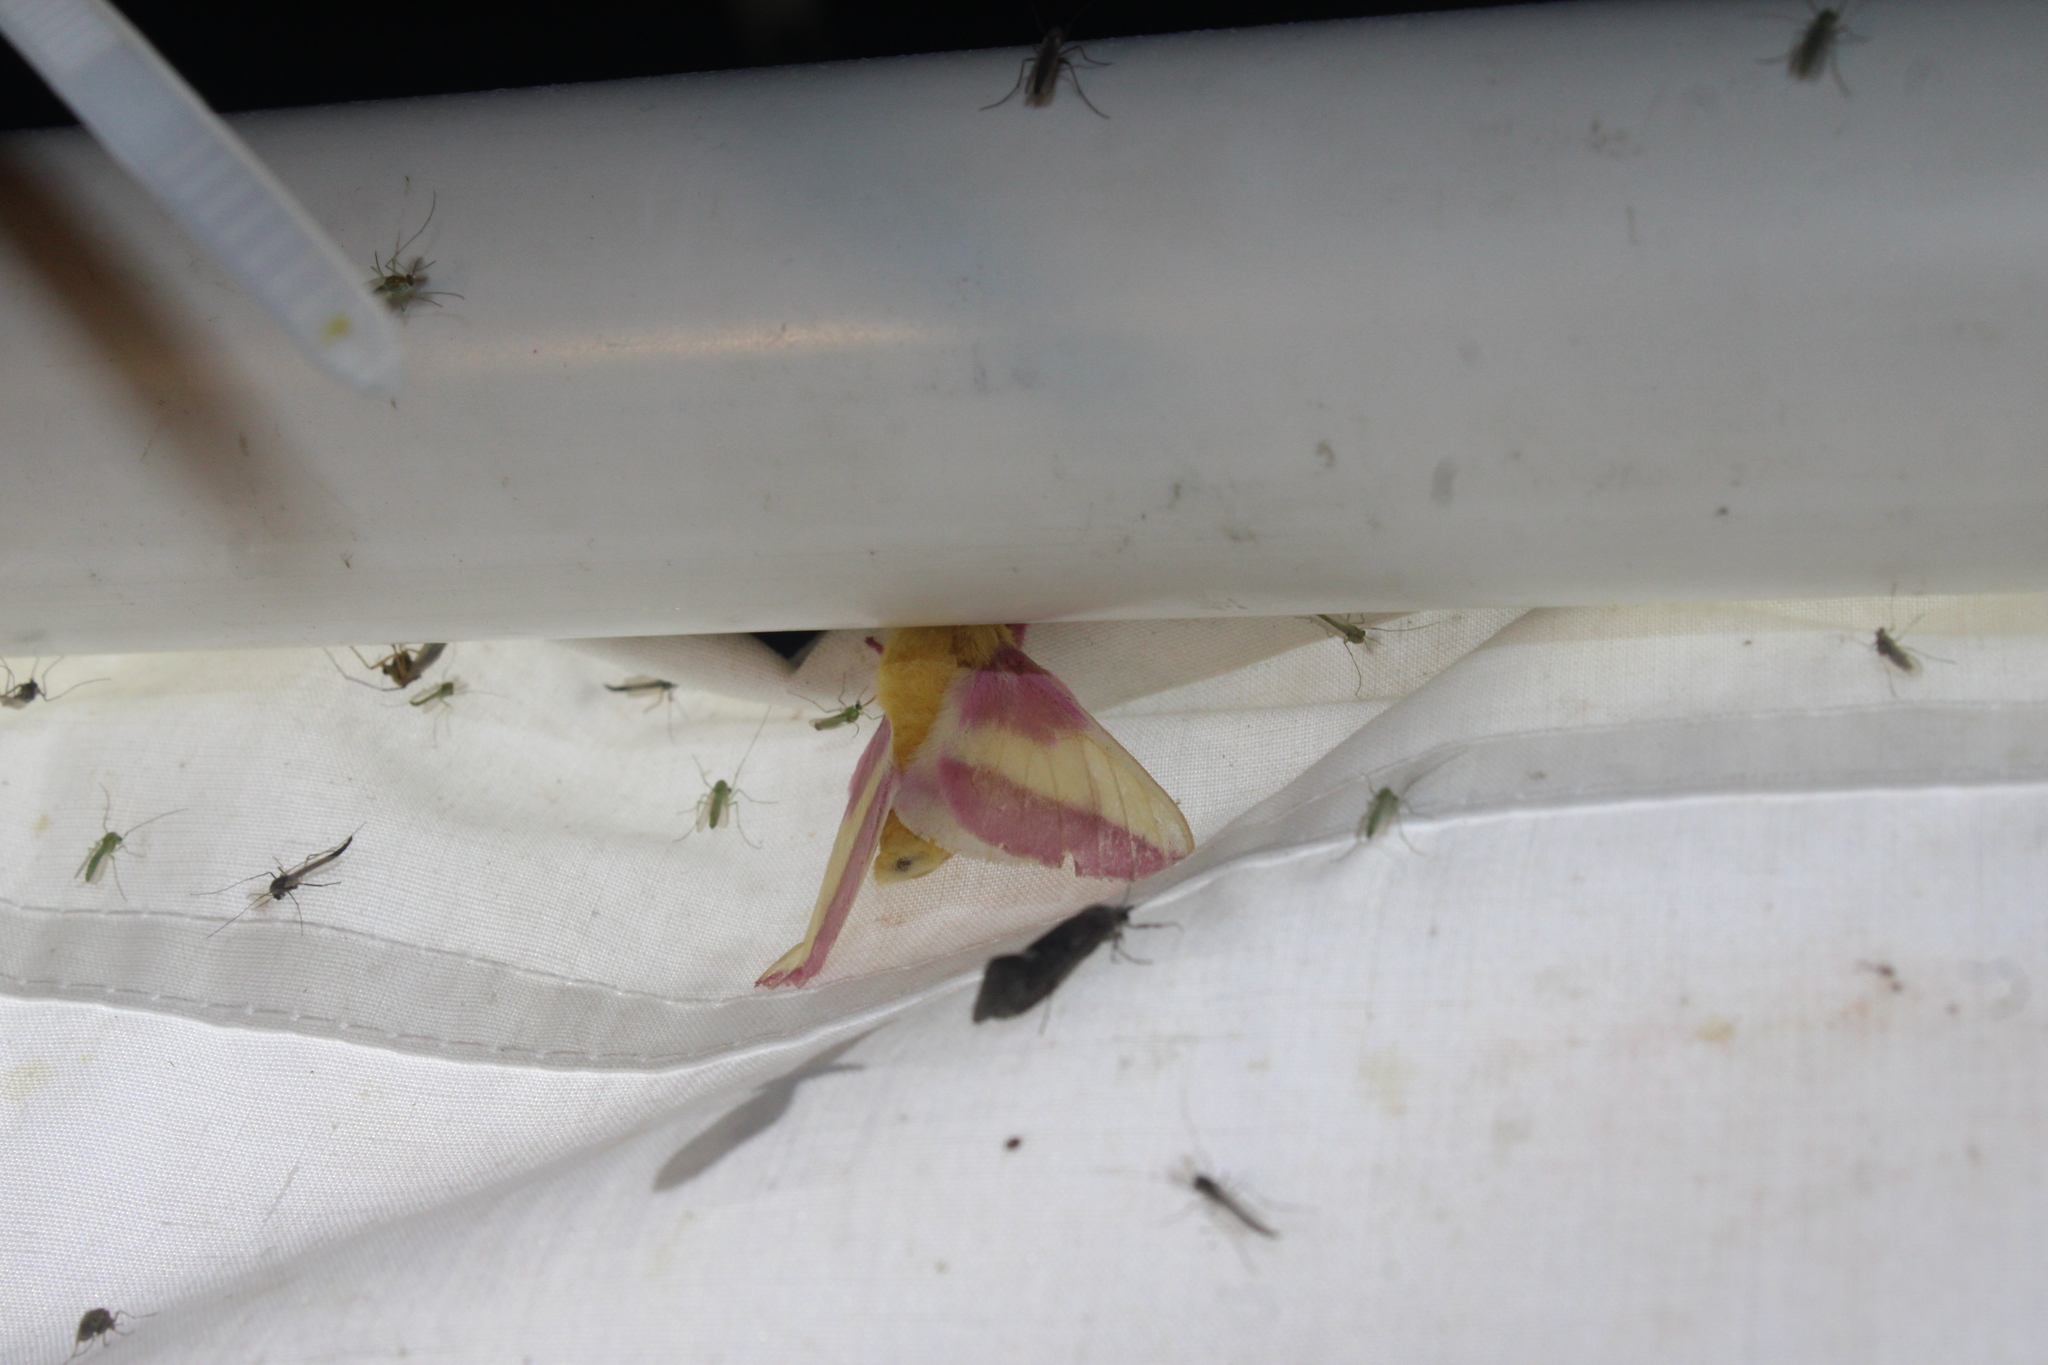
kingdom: Animalia
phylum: Arthropoda
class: Insecta
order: Lepidoptera
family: Saturniidae
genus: Dryocampa
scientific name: Dryocampa rubicunda
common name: Rosy maple moth
